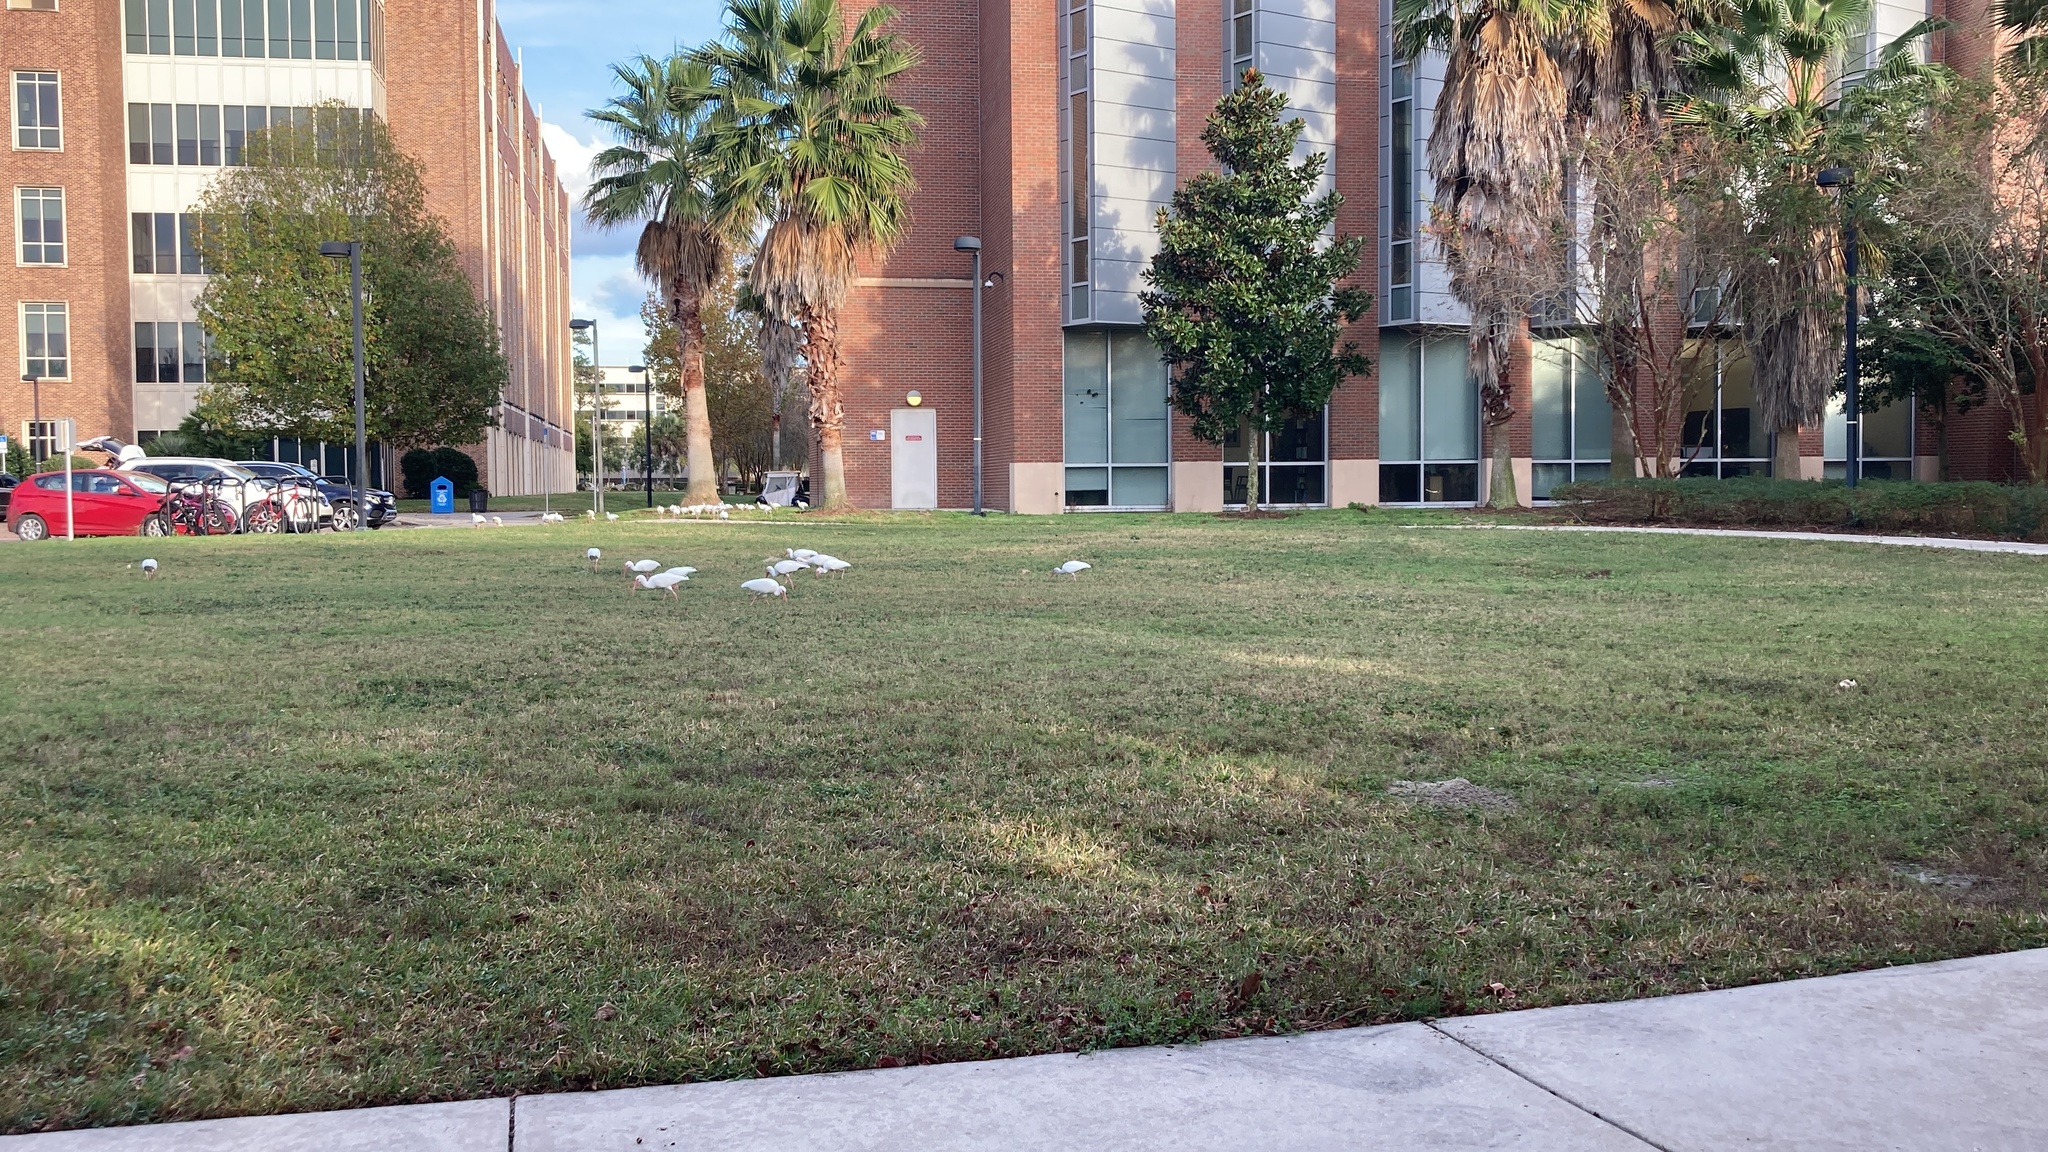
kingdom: Animalia
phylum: Chordata
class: Aves
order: Pelecaniformes
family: Threskiornithidae
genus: Eudocimus
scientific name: Eudocimus albus
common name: White ibis
